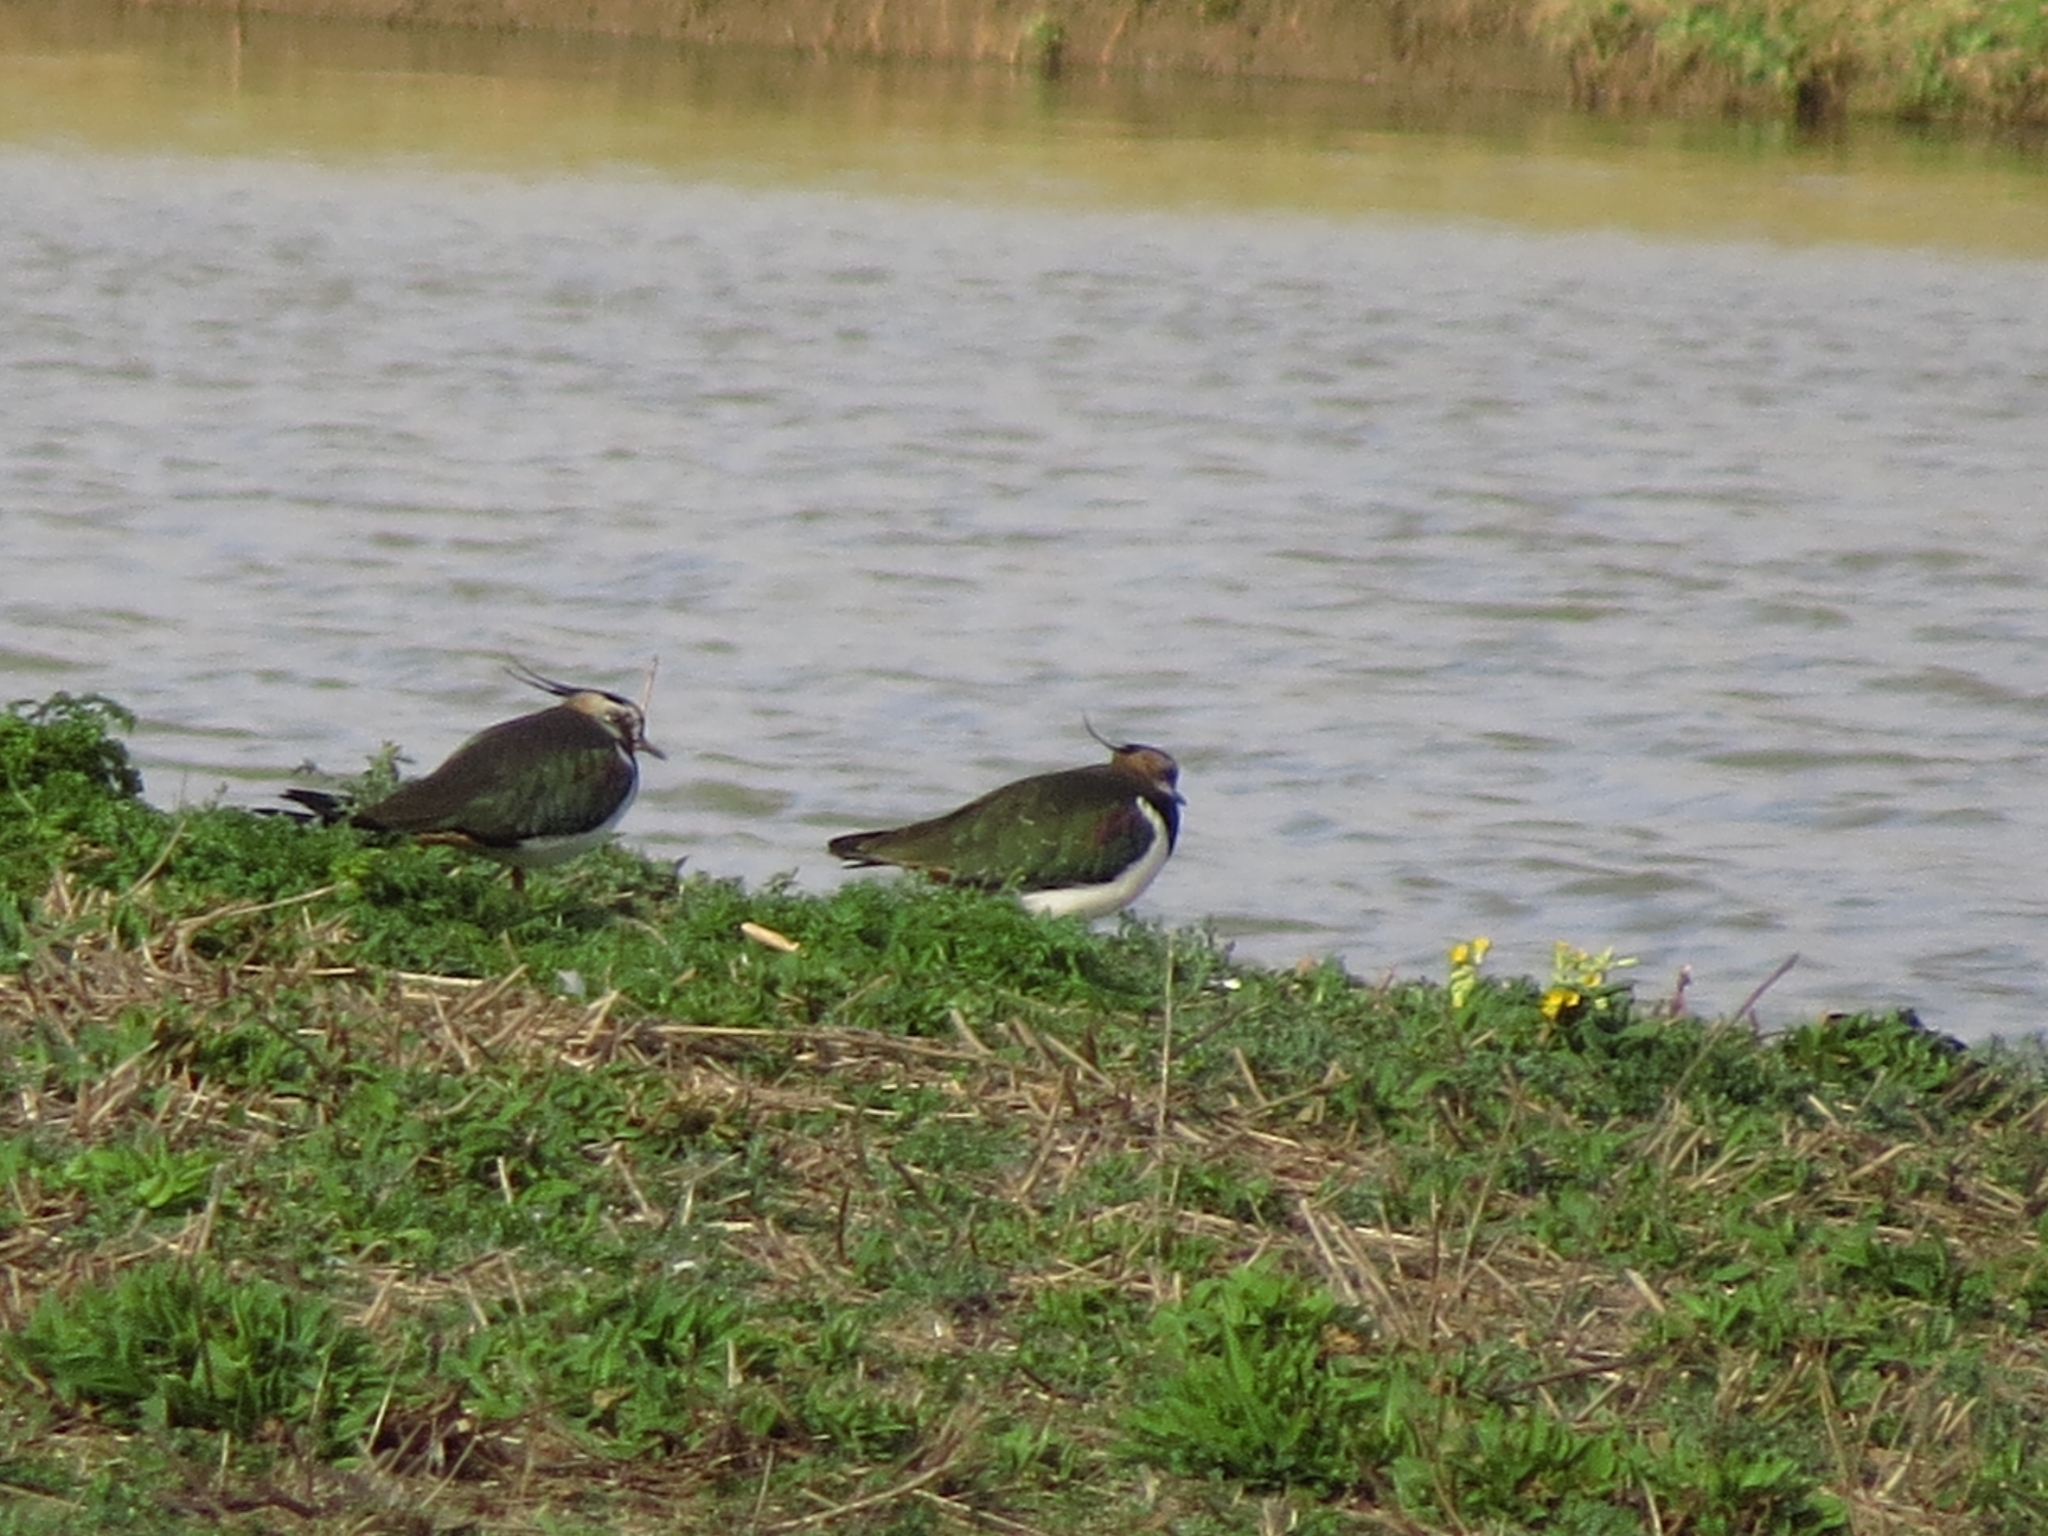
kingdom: Animalia
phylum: Chordata
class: Aves
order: Charadriiformes
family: Charadriidae
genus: Vanellus
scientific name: Vanellus vanellus
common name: Northern lapwing
